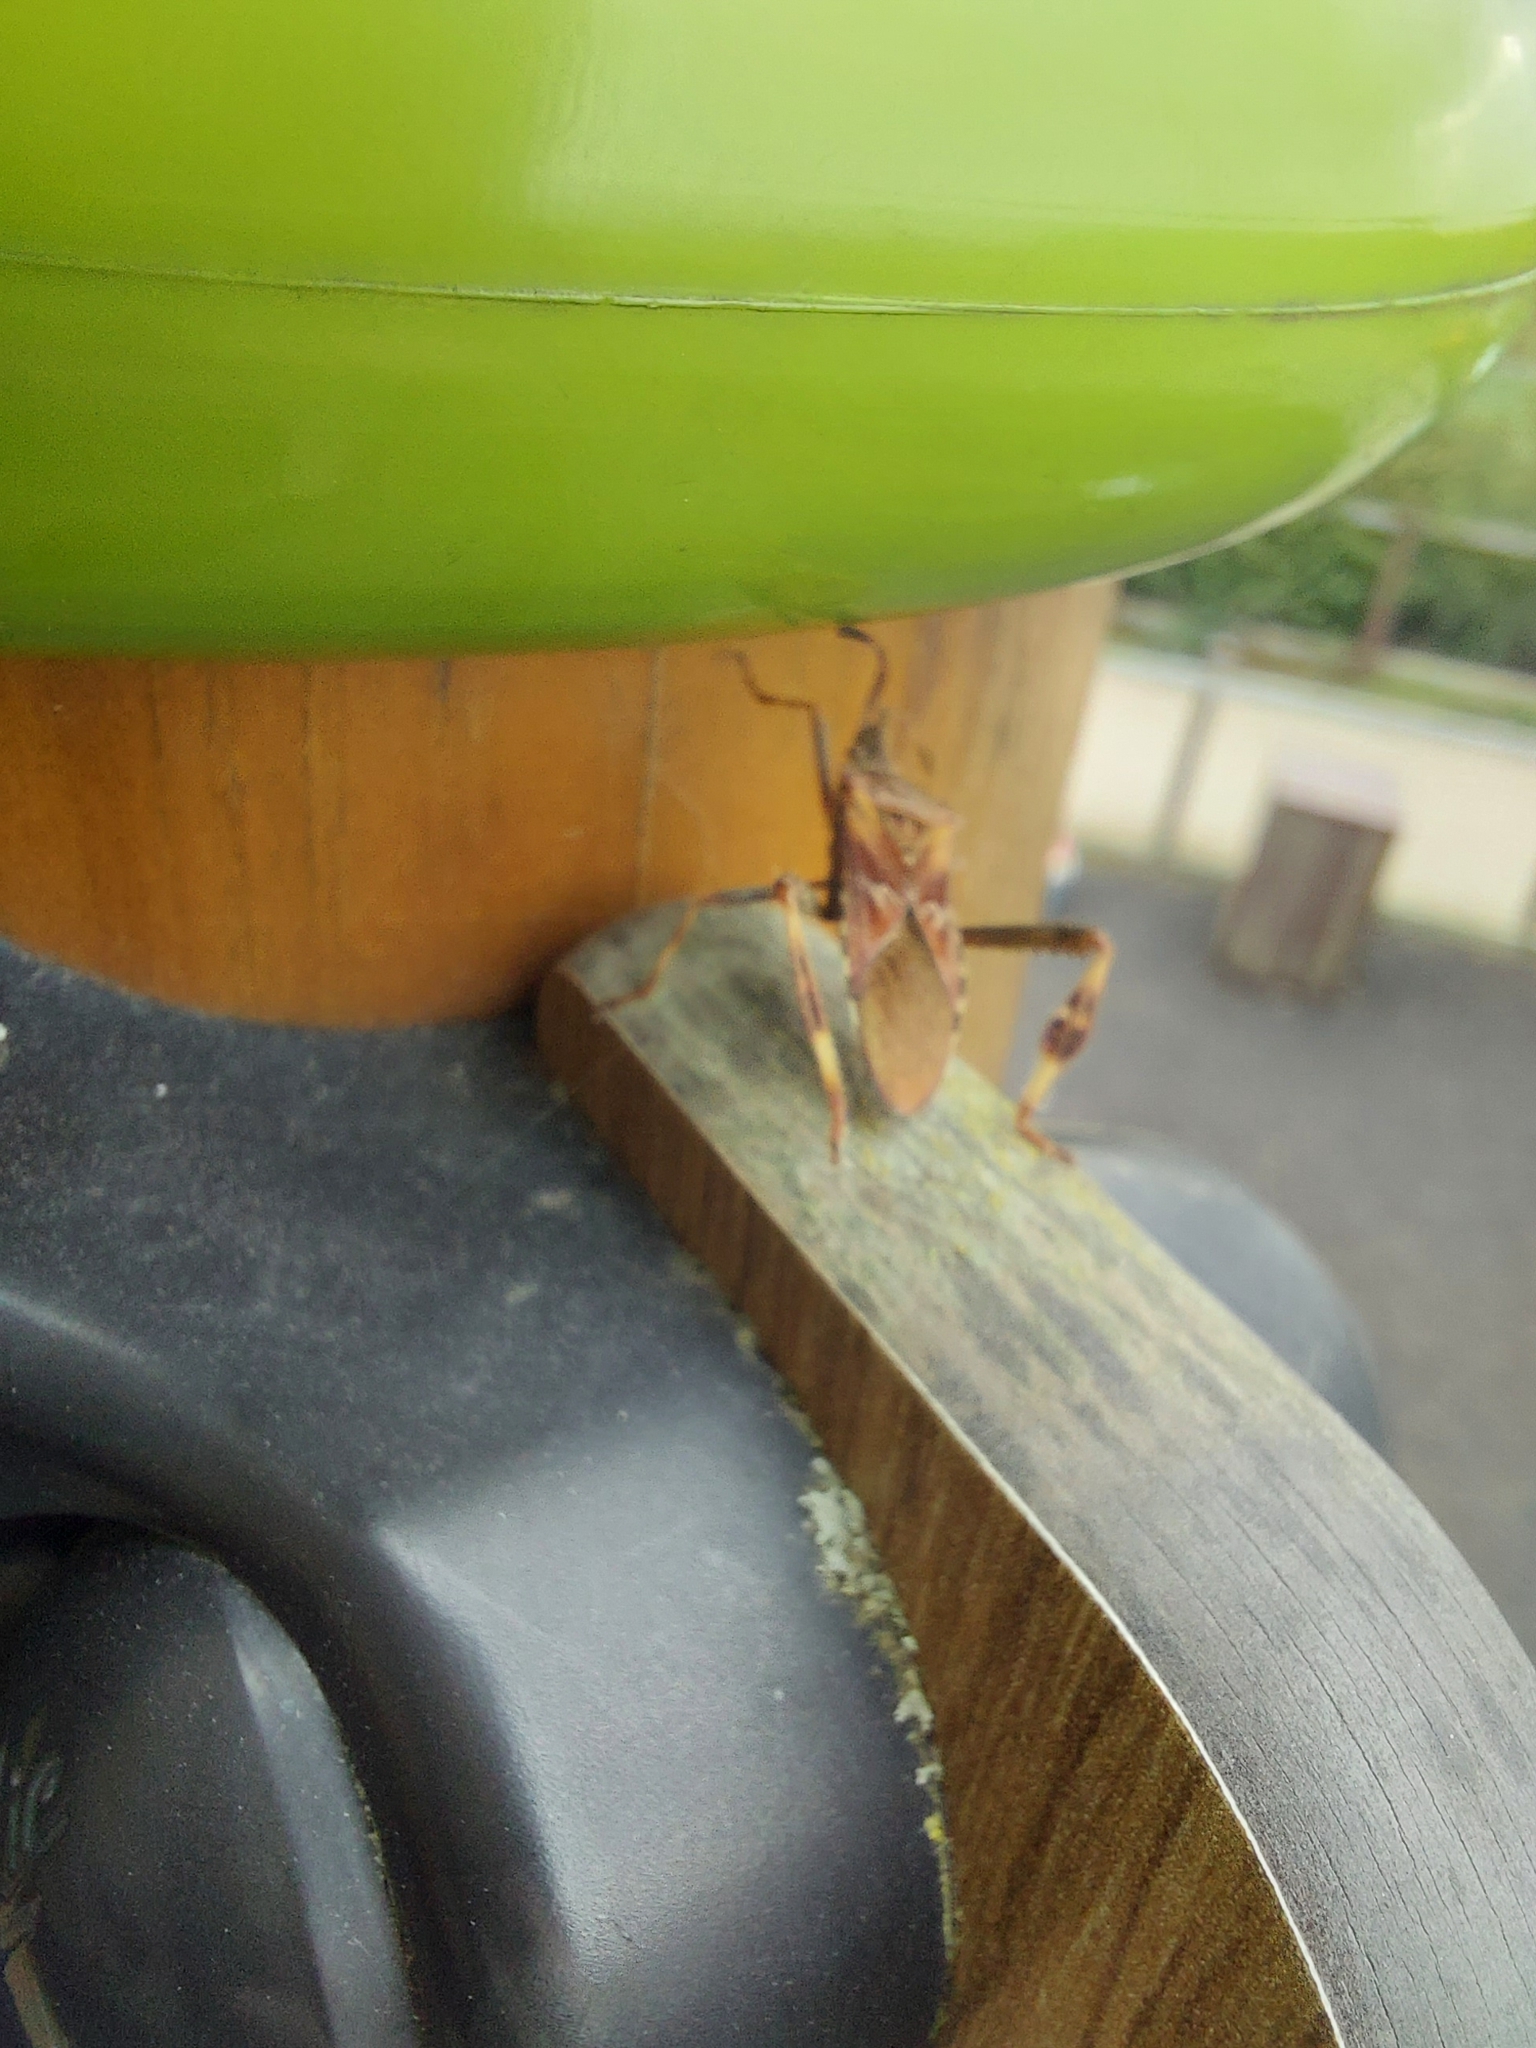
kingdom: Animalia
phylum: Arthropoda
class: Insecta
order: Hemiptera
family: Coreidae
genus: Leptoglossus
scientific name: Leptoglossus occidentalis
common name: Western conifer-seed bug
